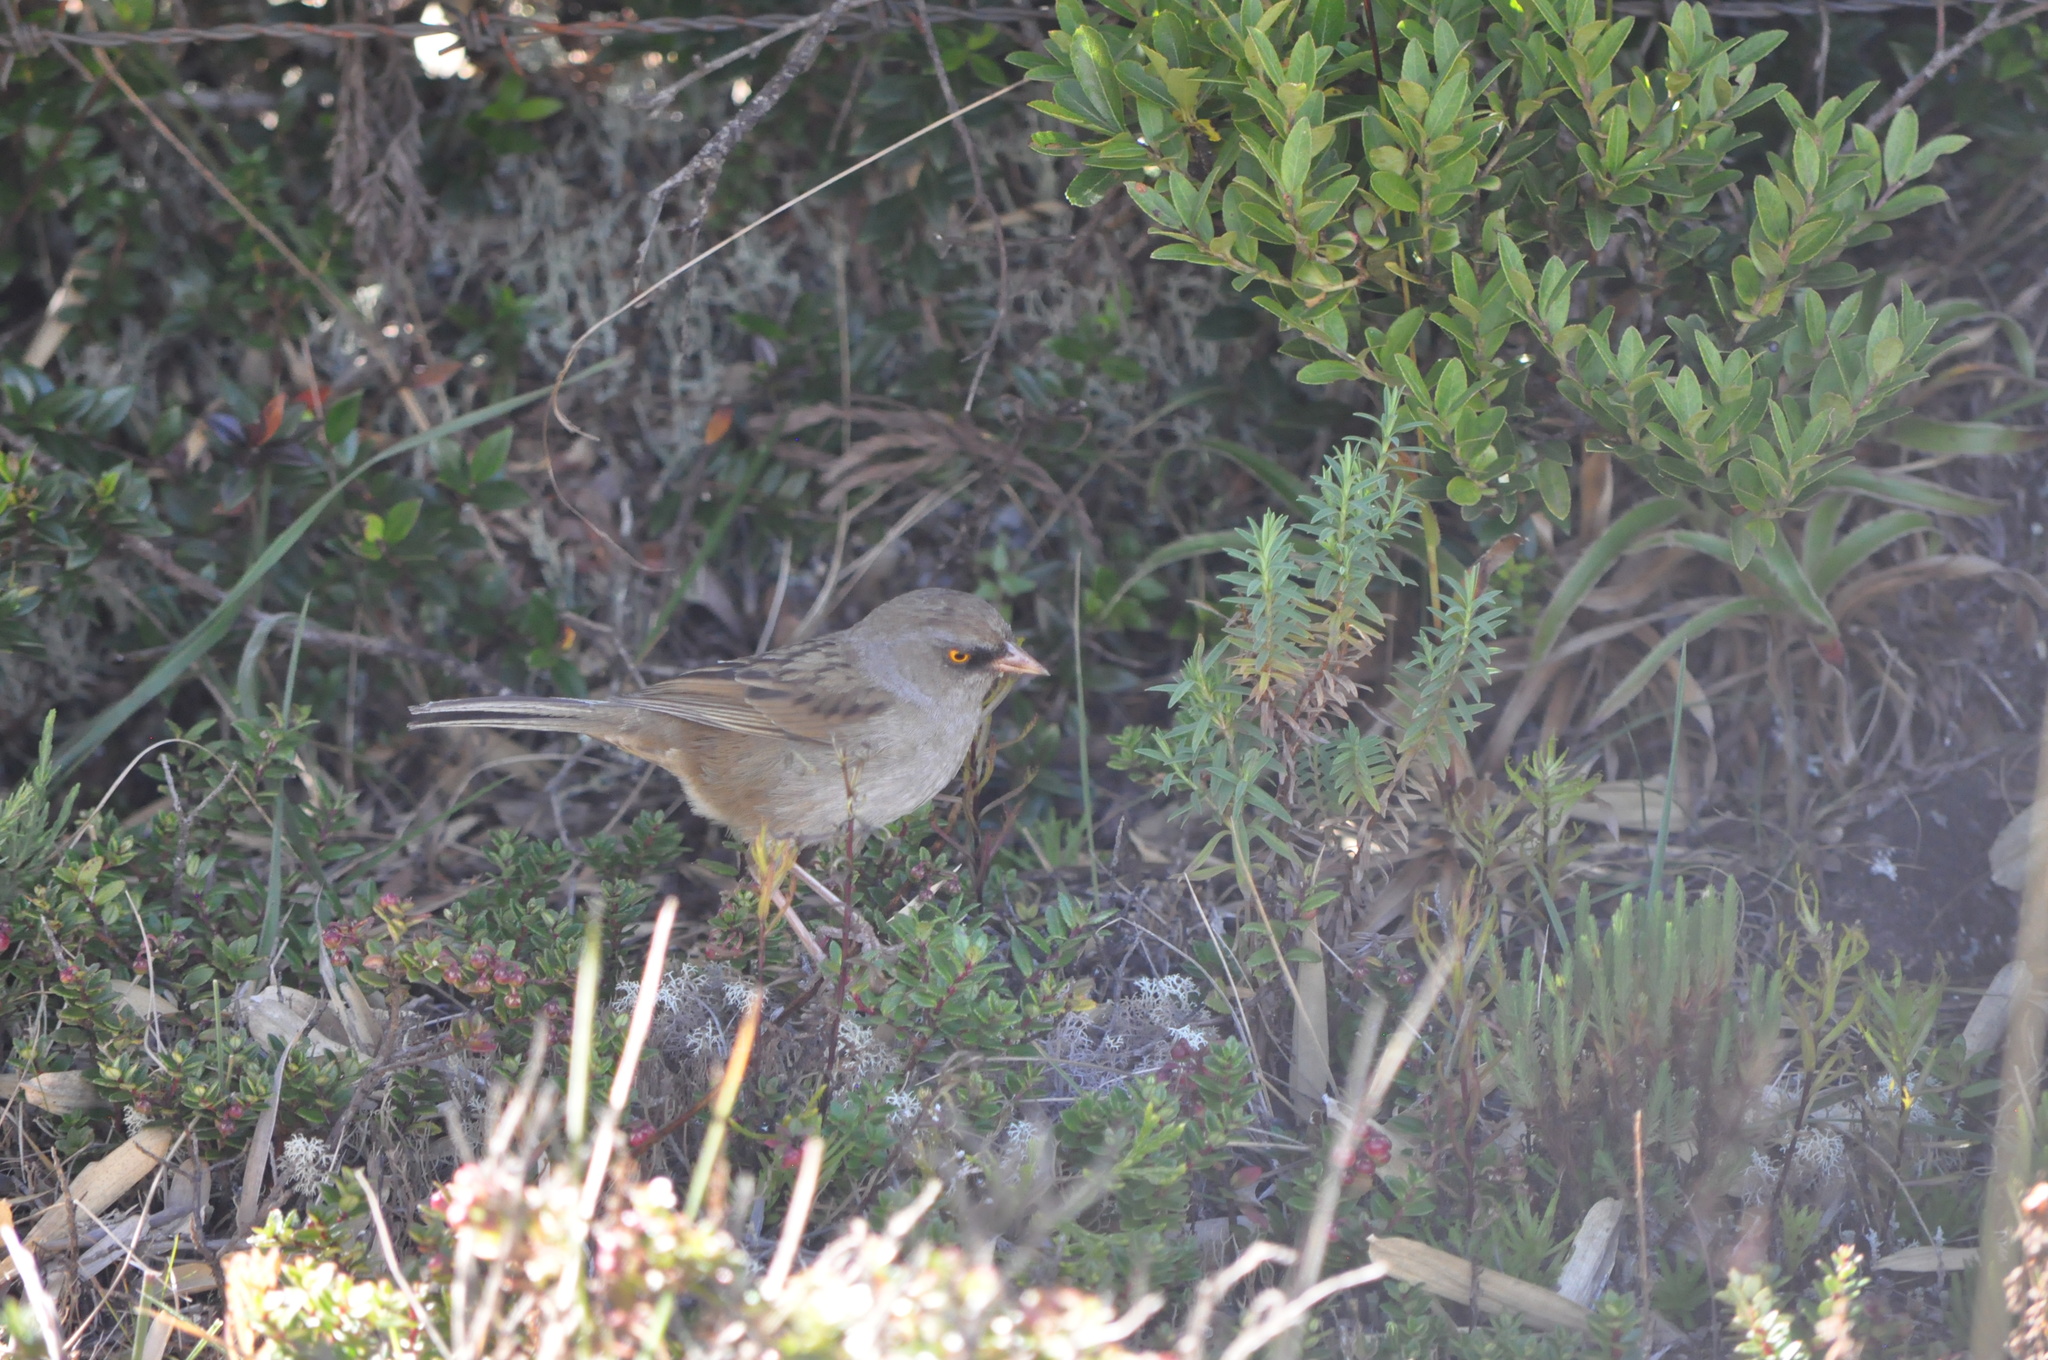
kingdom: Animalia
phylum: Chordata
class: Aves
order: Passeriformes
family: Passerellidae
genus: Junco
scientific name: Junco vulcani
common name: Volcano junco
